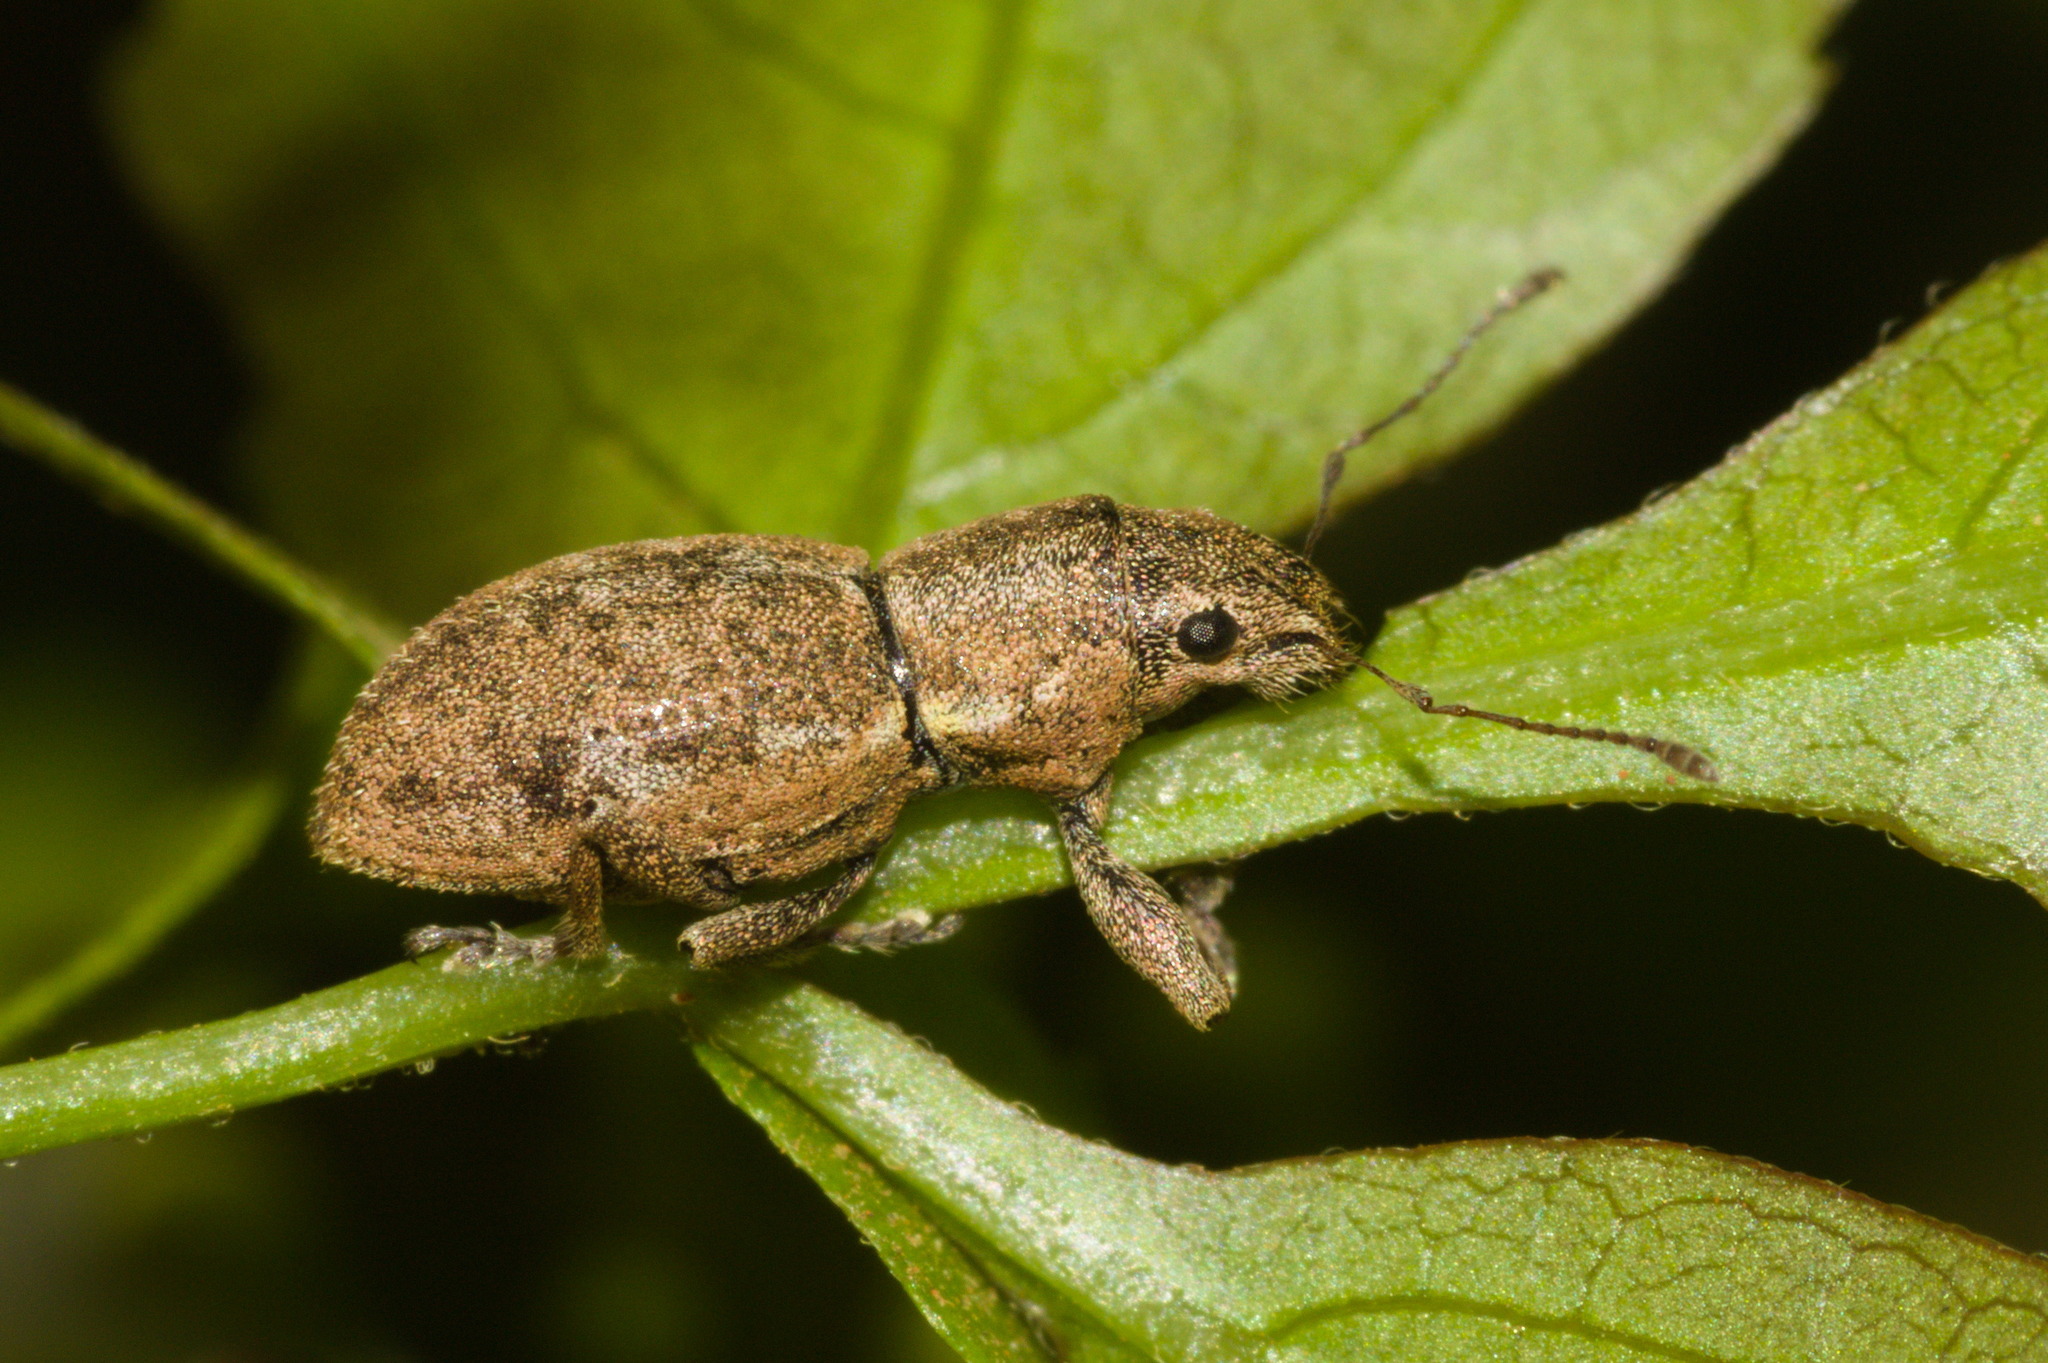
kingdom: Animalia
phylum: Arthropoda
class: Insecta
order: Coleoptera
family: Curculionidae
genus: Naupactus
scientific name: Naupactus cervinus
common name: Fuller rose beetle
